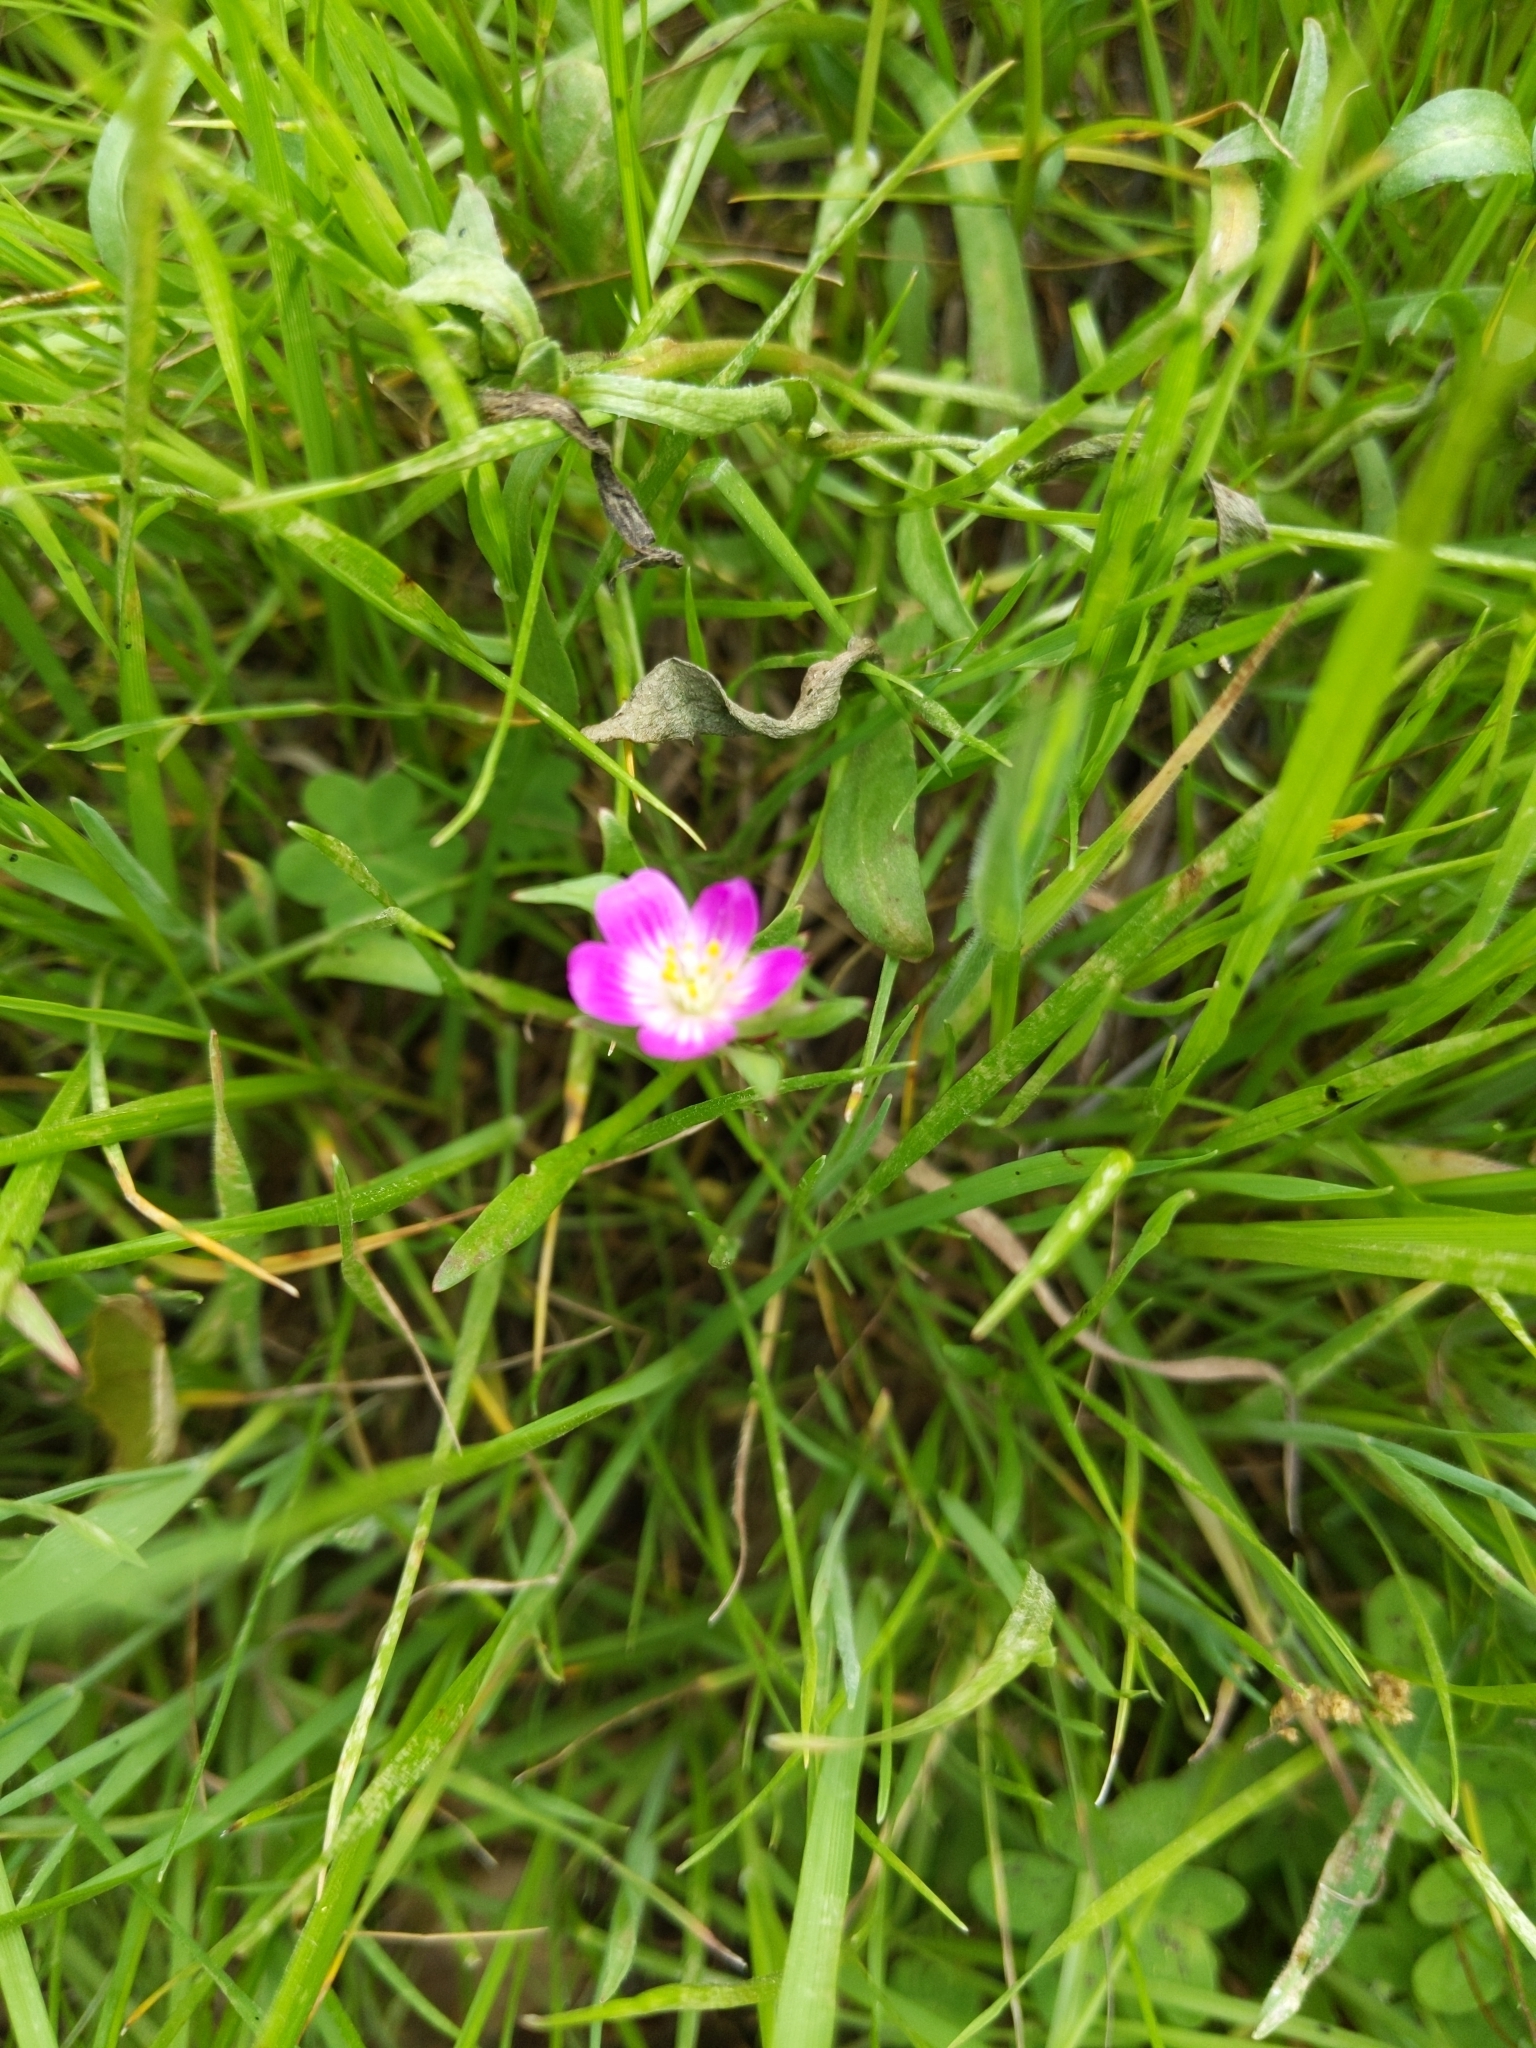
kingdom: Plantae
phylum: Tracheophyta
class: Magnoliopsida
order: Caryophyllales
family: Montiaceae
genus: Calandrinia
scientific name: Calandrinia menziesii
